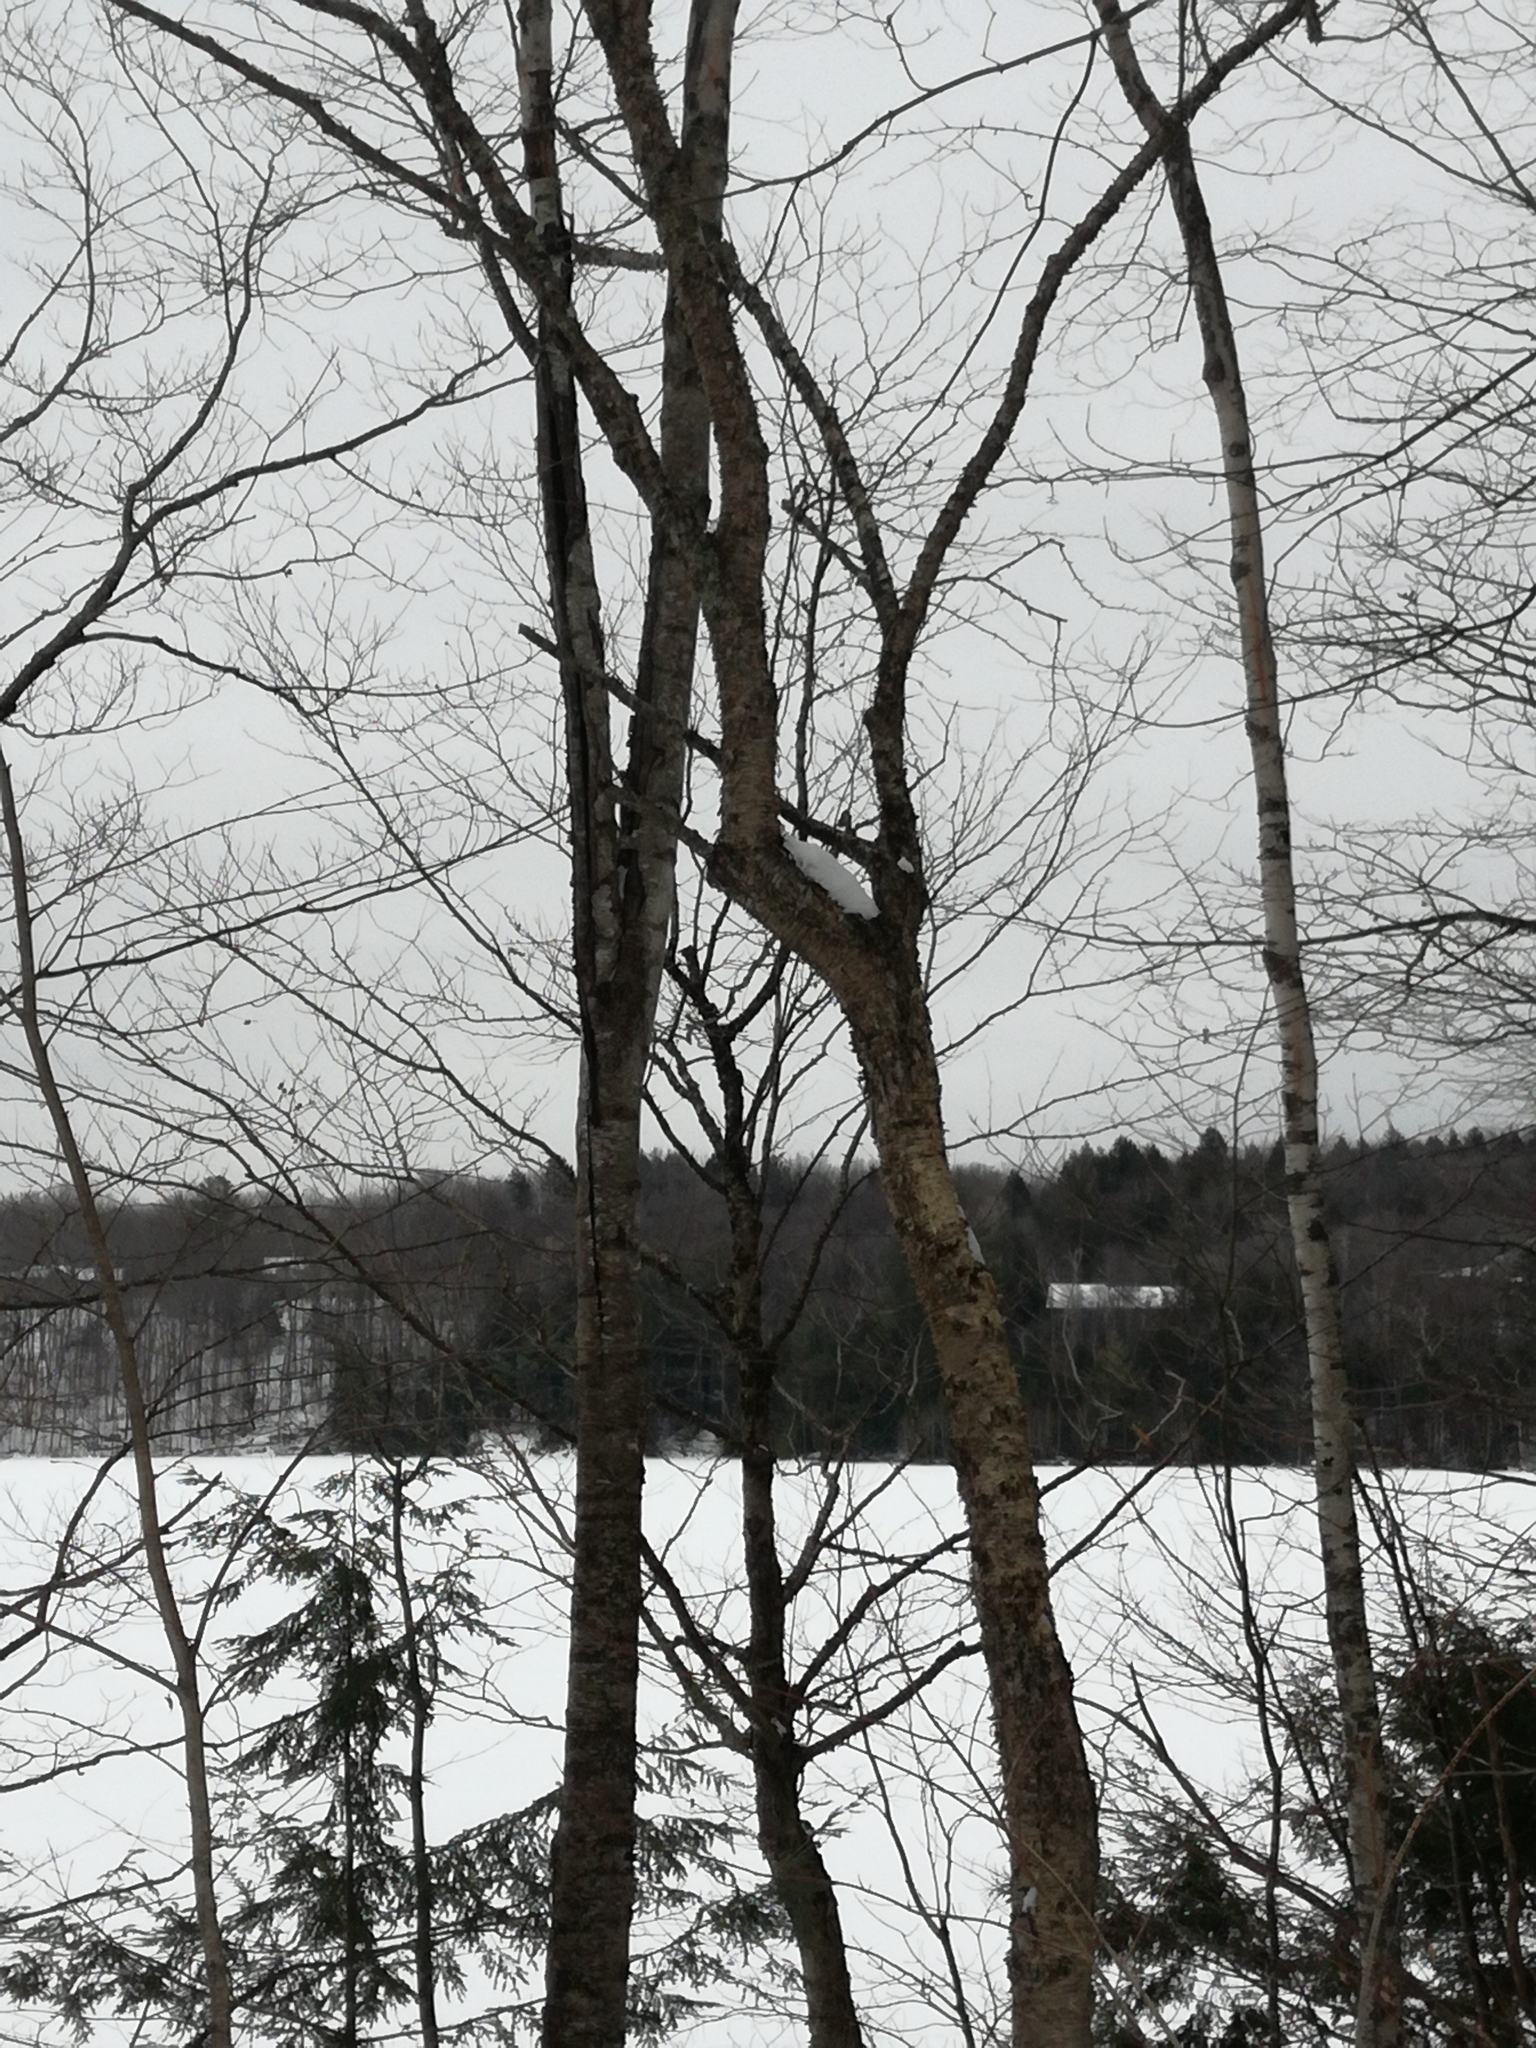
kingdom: Plantae
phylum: Tracheophyta
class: Magnoliopsida
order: Fagales
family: Betulaceae
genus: Betula
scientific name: Betula alleghaniensis
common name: Yellow birch
